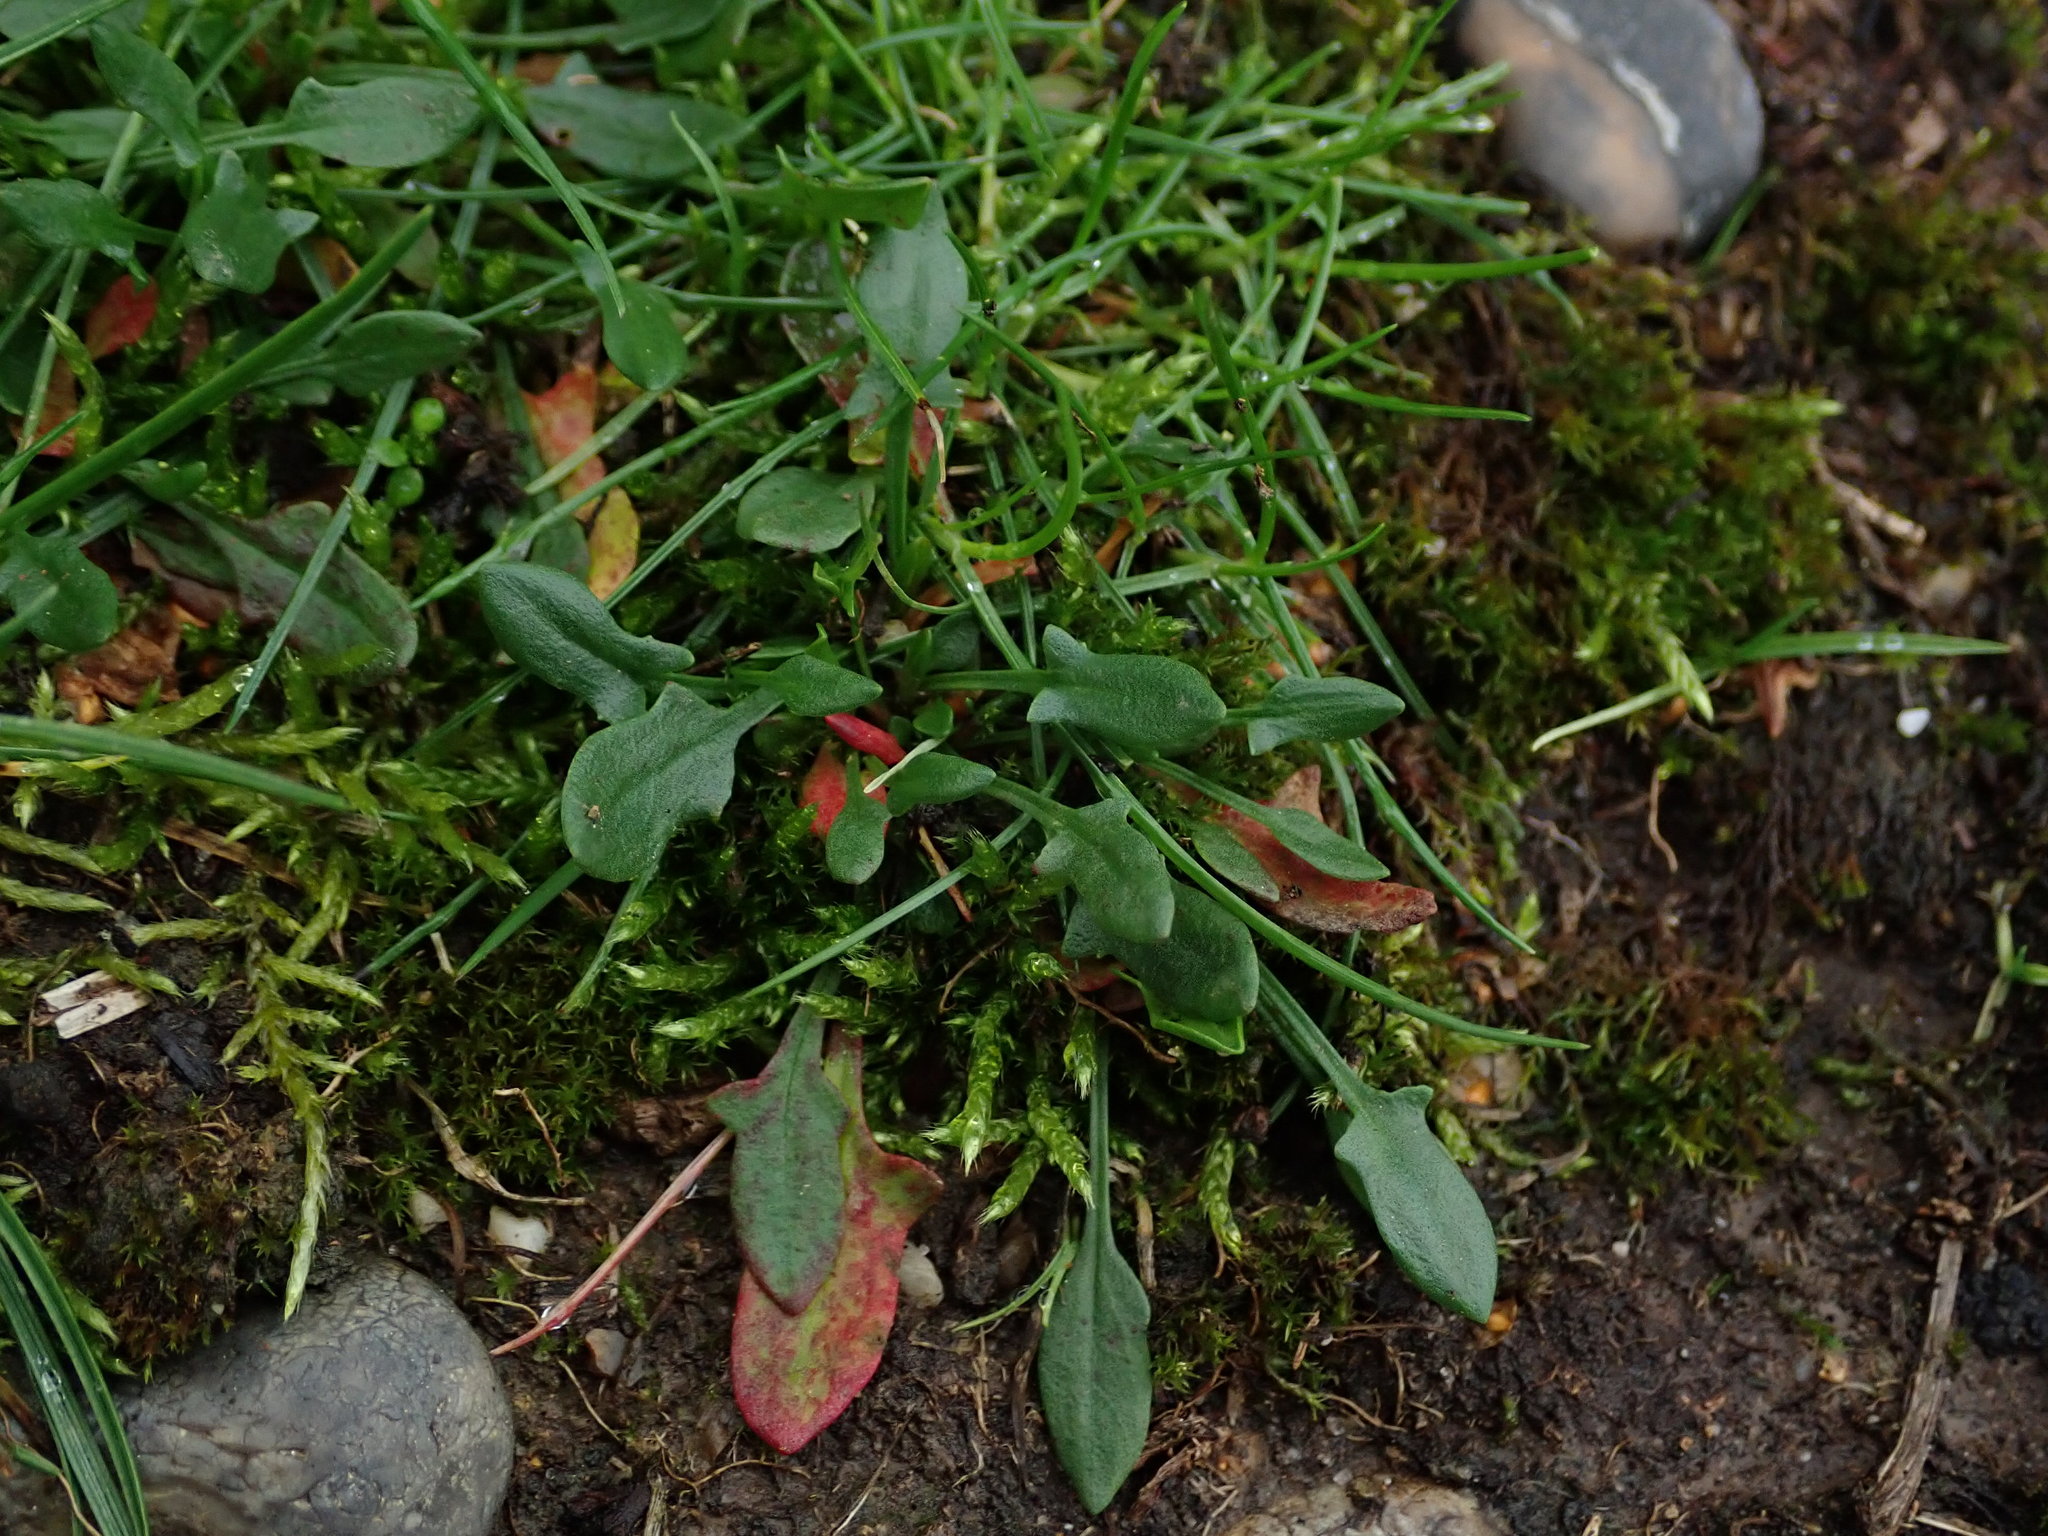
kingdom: Plantae
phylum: Tracheophyta
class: Magnoliopsida
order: Caryophyllales
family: Polygonaceae
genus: Rumex
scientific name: Rumex acetosella
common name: Common sheep sorrel
